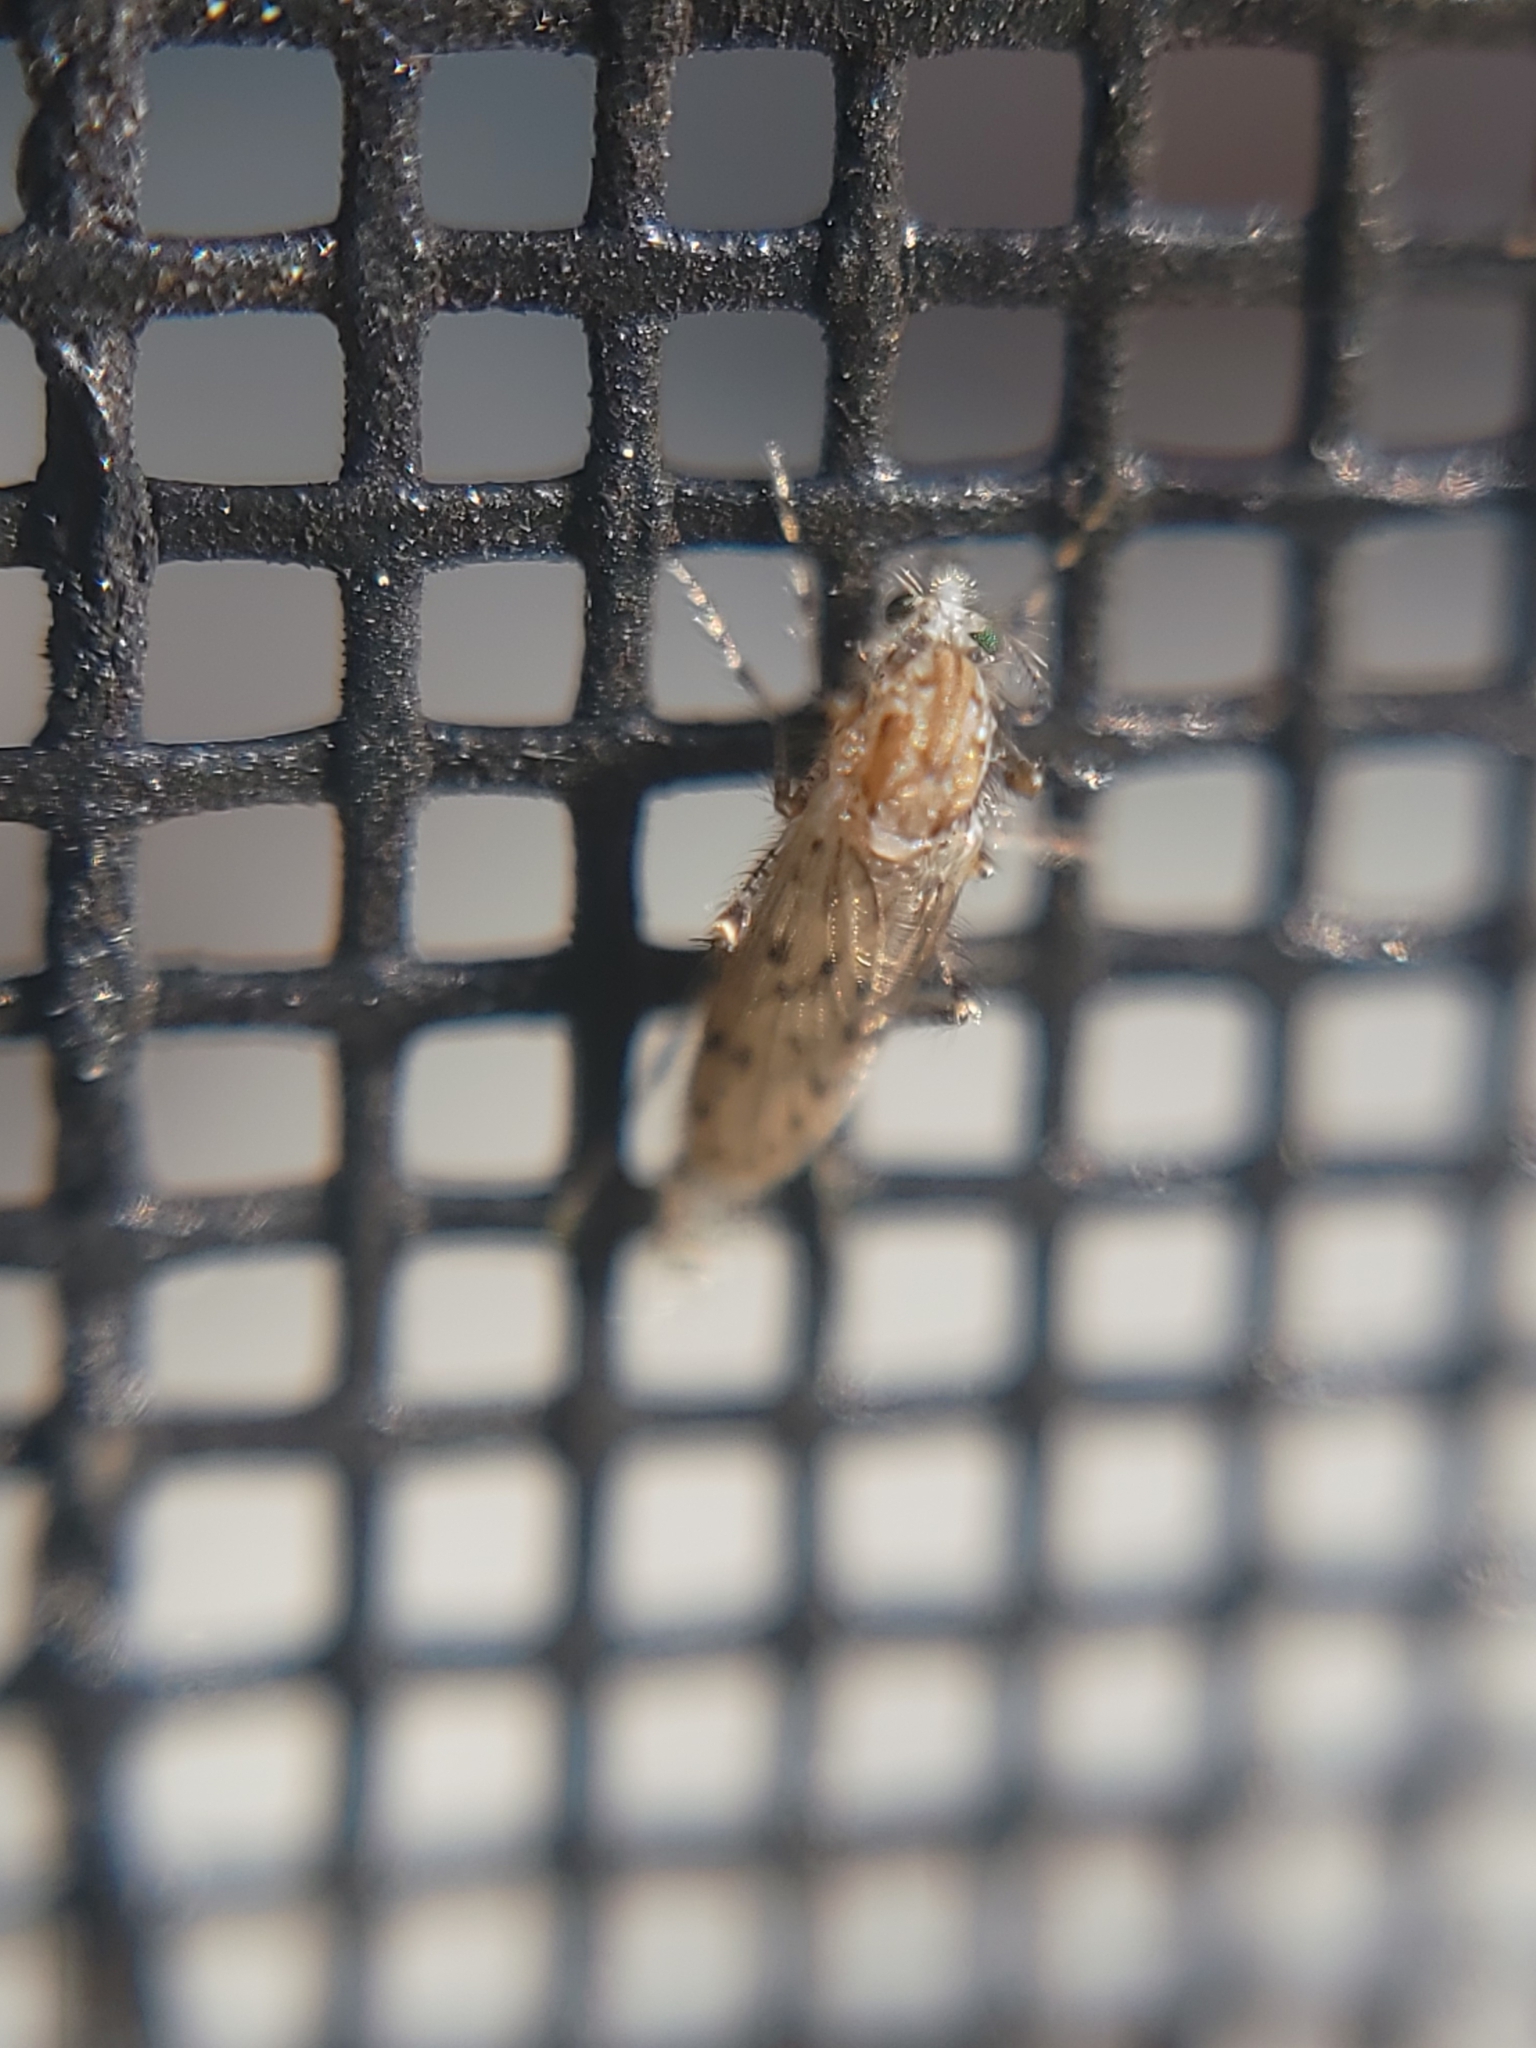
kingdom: Animalia
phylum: Arthropoda
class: Insecta
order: Diptera
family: Chaoboridae
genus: Chaoborus
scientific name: Chaoborus punctipennis
